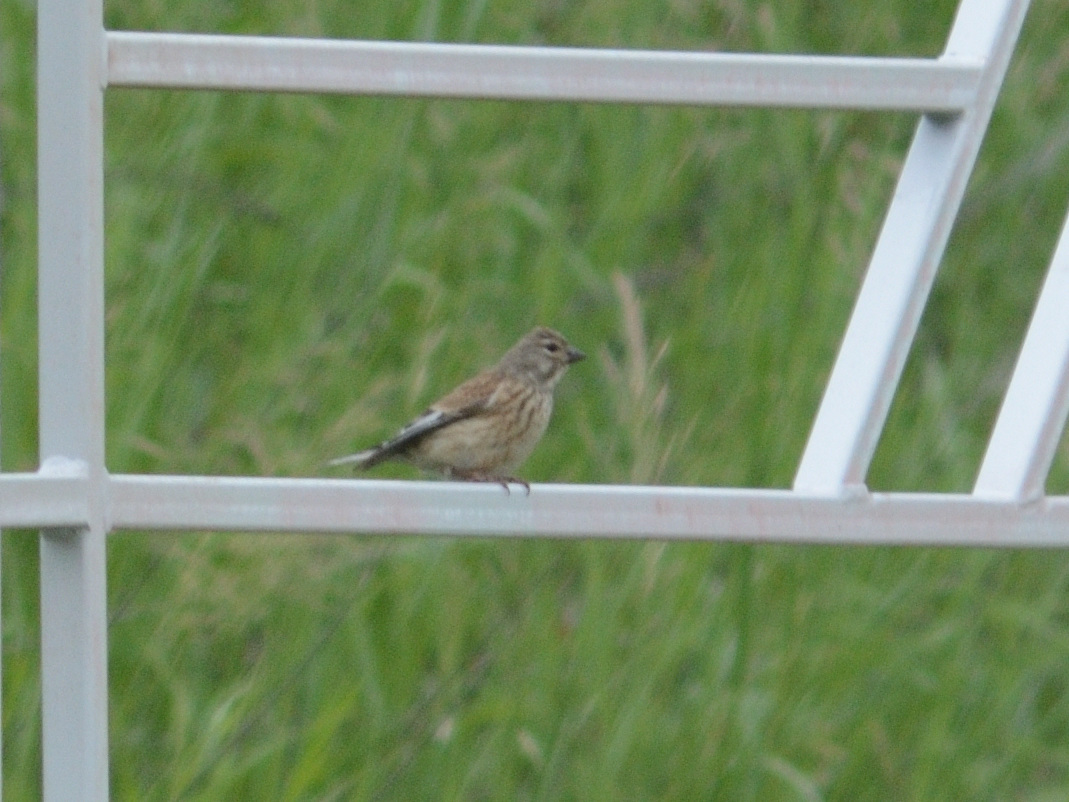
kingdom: Animalia
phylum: Chordata
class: Aves
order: Passeriformes
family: Fringillidae
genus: Linaria
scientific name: Linaria cannabina
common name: Common linnet
